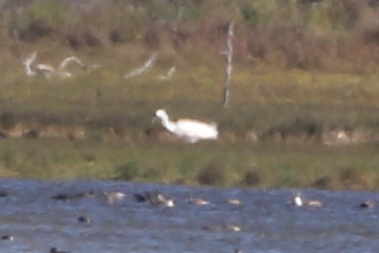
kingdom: Animalia
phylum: Chordata
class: Aves
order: Gruiformes
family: Gruidae
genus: Grus
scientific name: Grus americana
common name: Whooping crane
